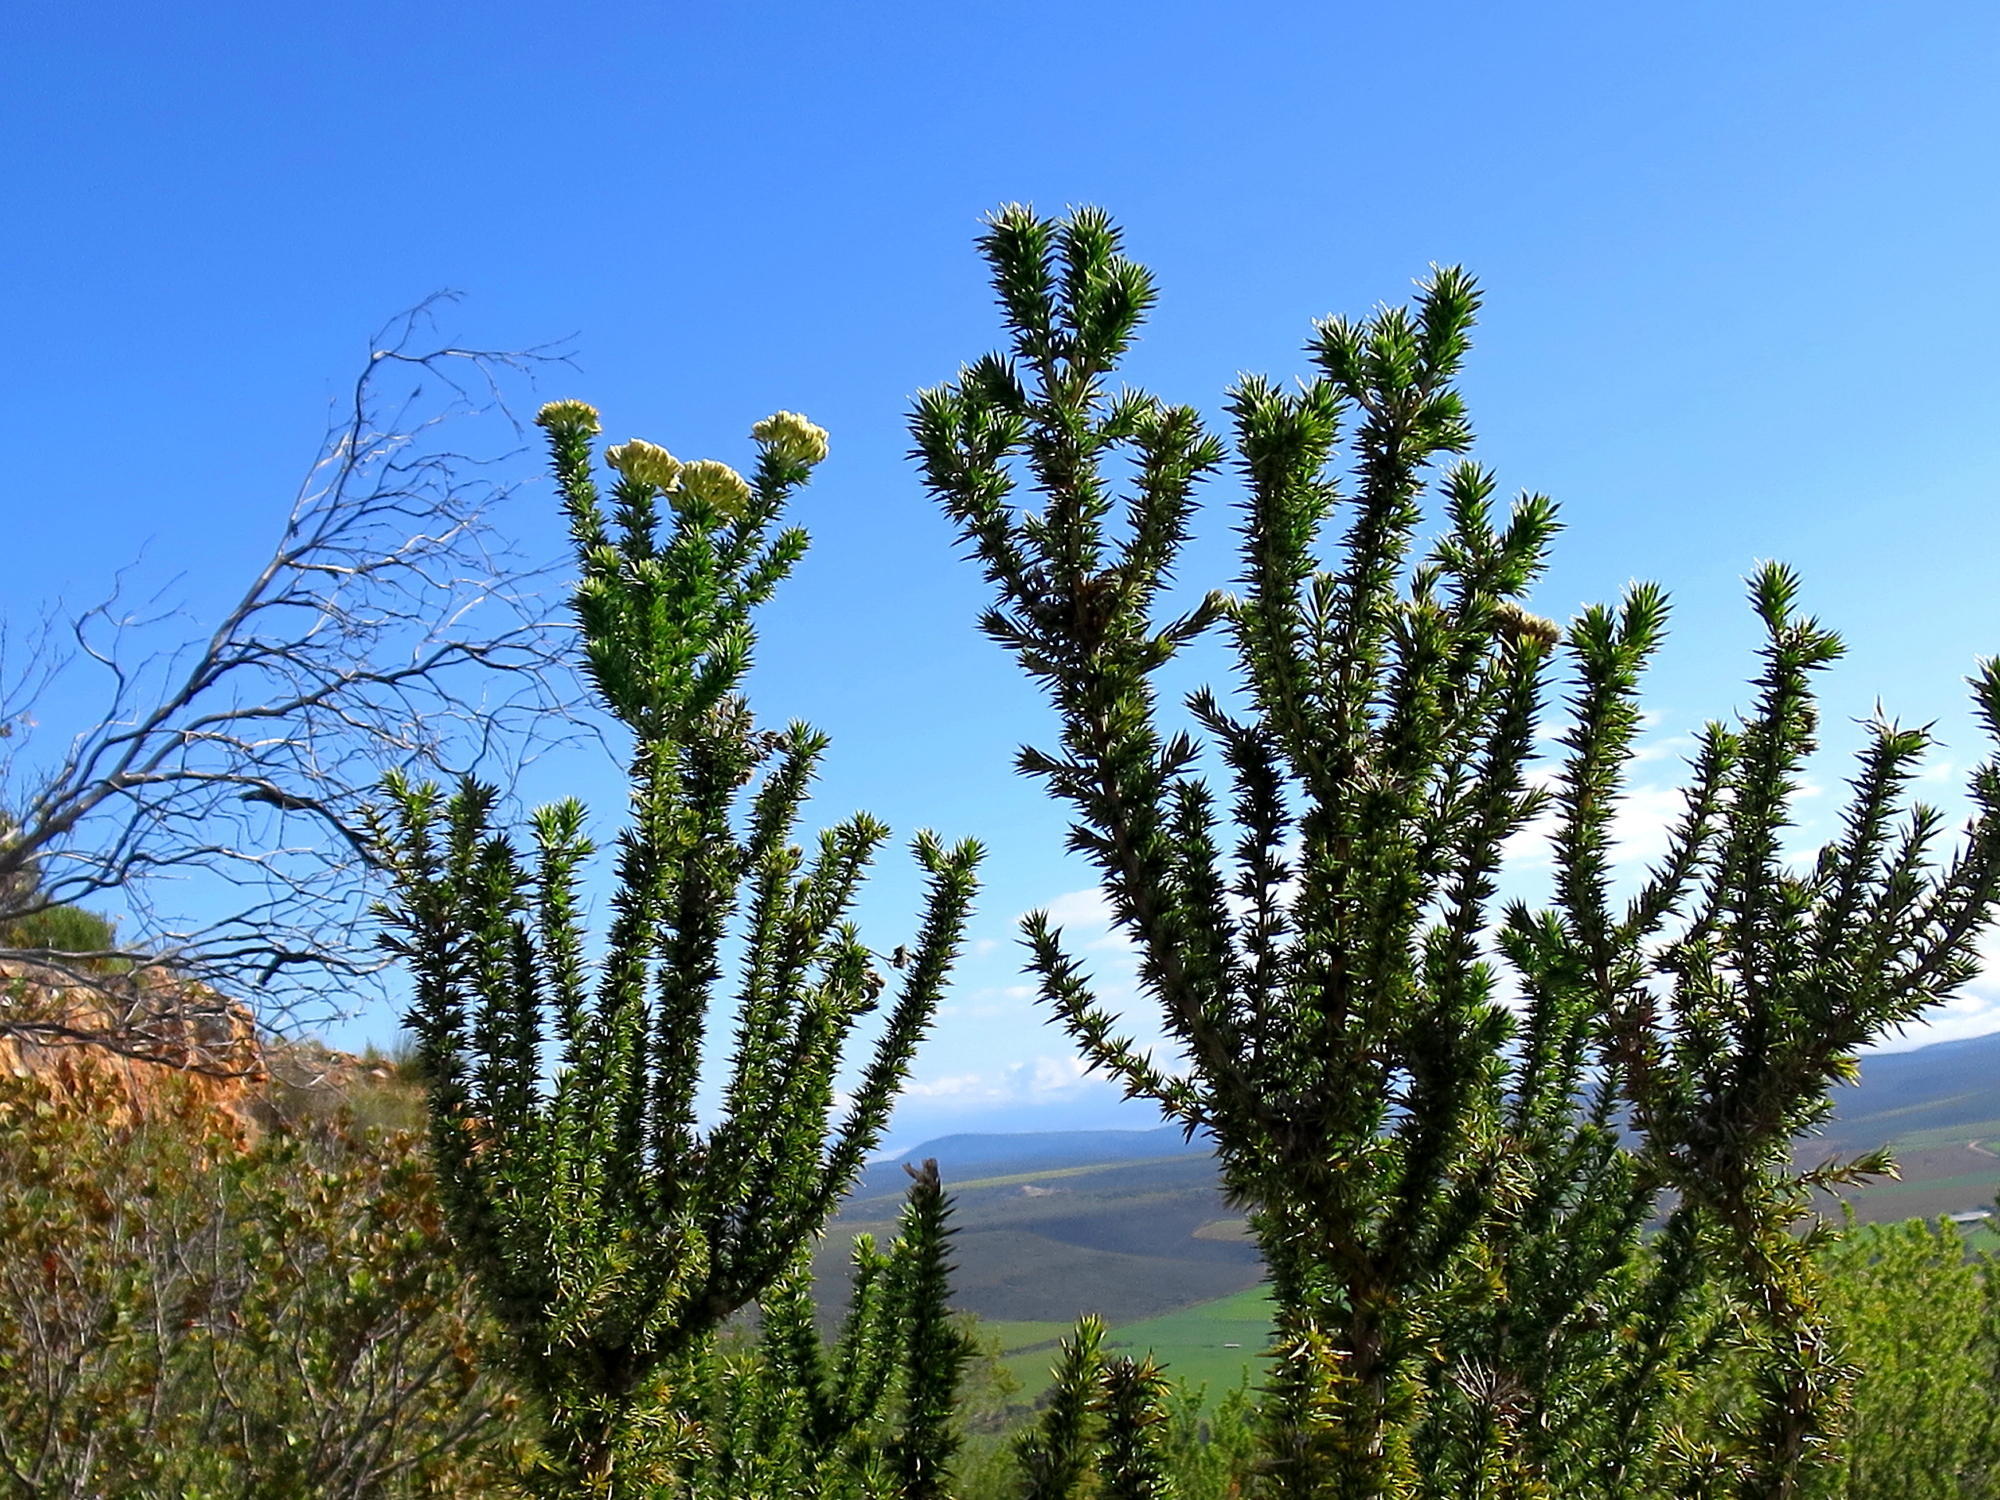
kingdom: Plantae
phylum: Tracheophyta
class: Magnoliopsida
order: Asterales
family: Asteraceae
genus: Metalasia
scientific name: Metalasia acuta
